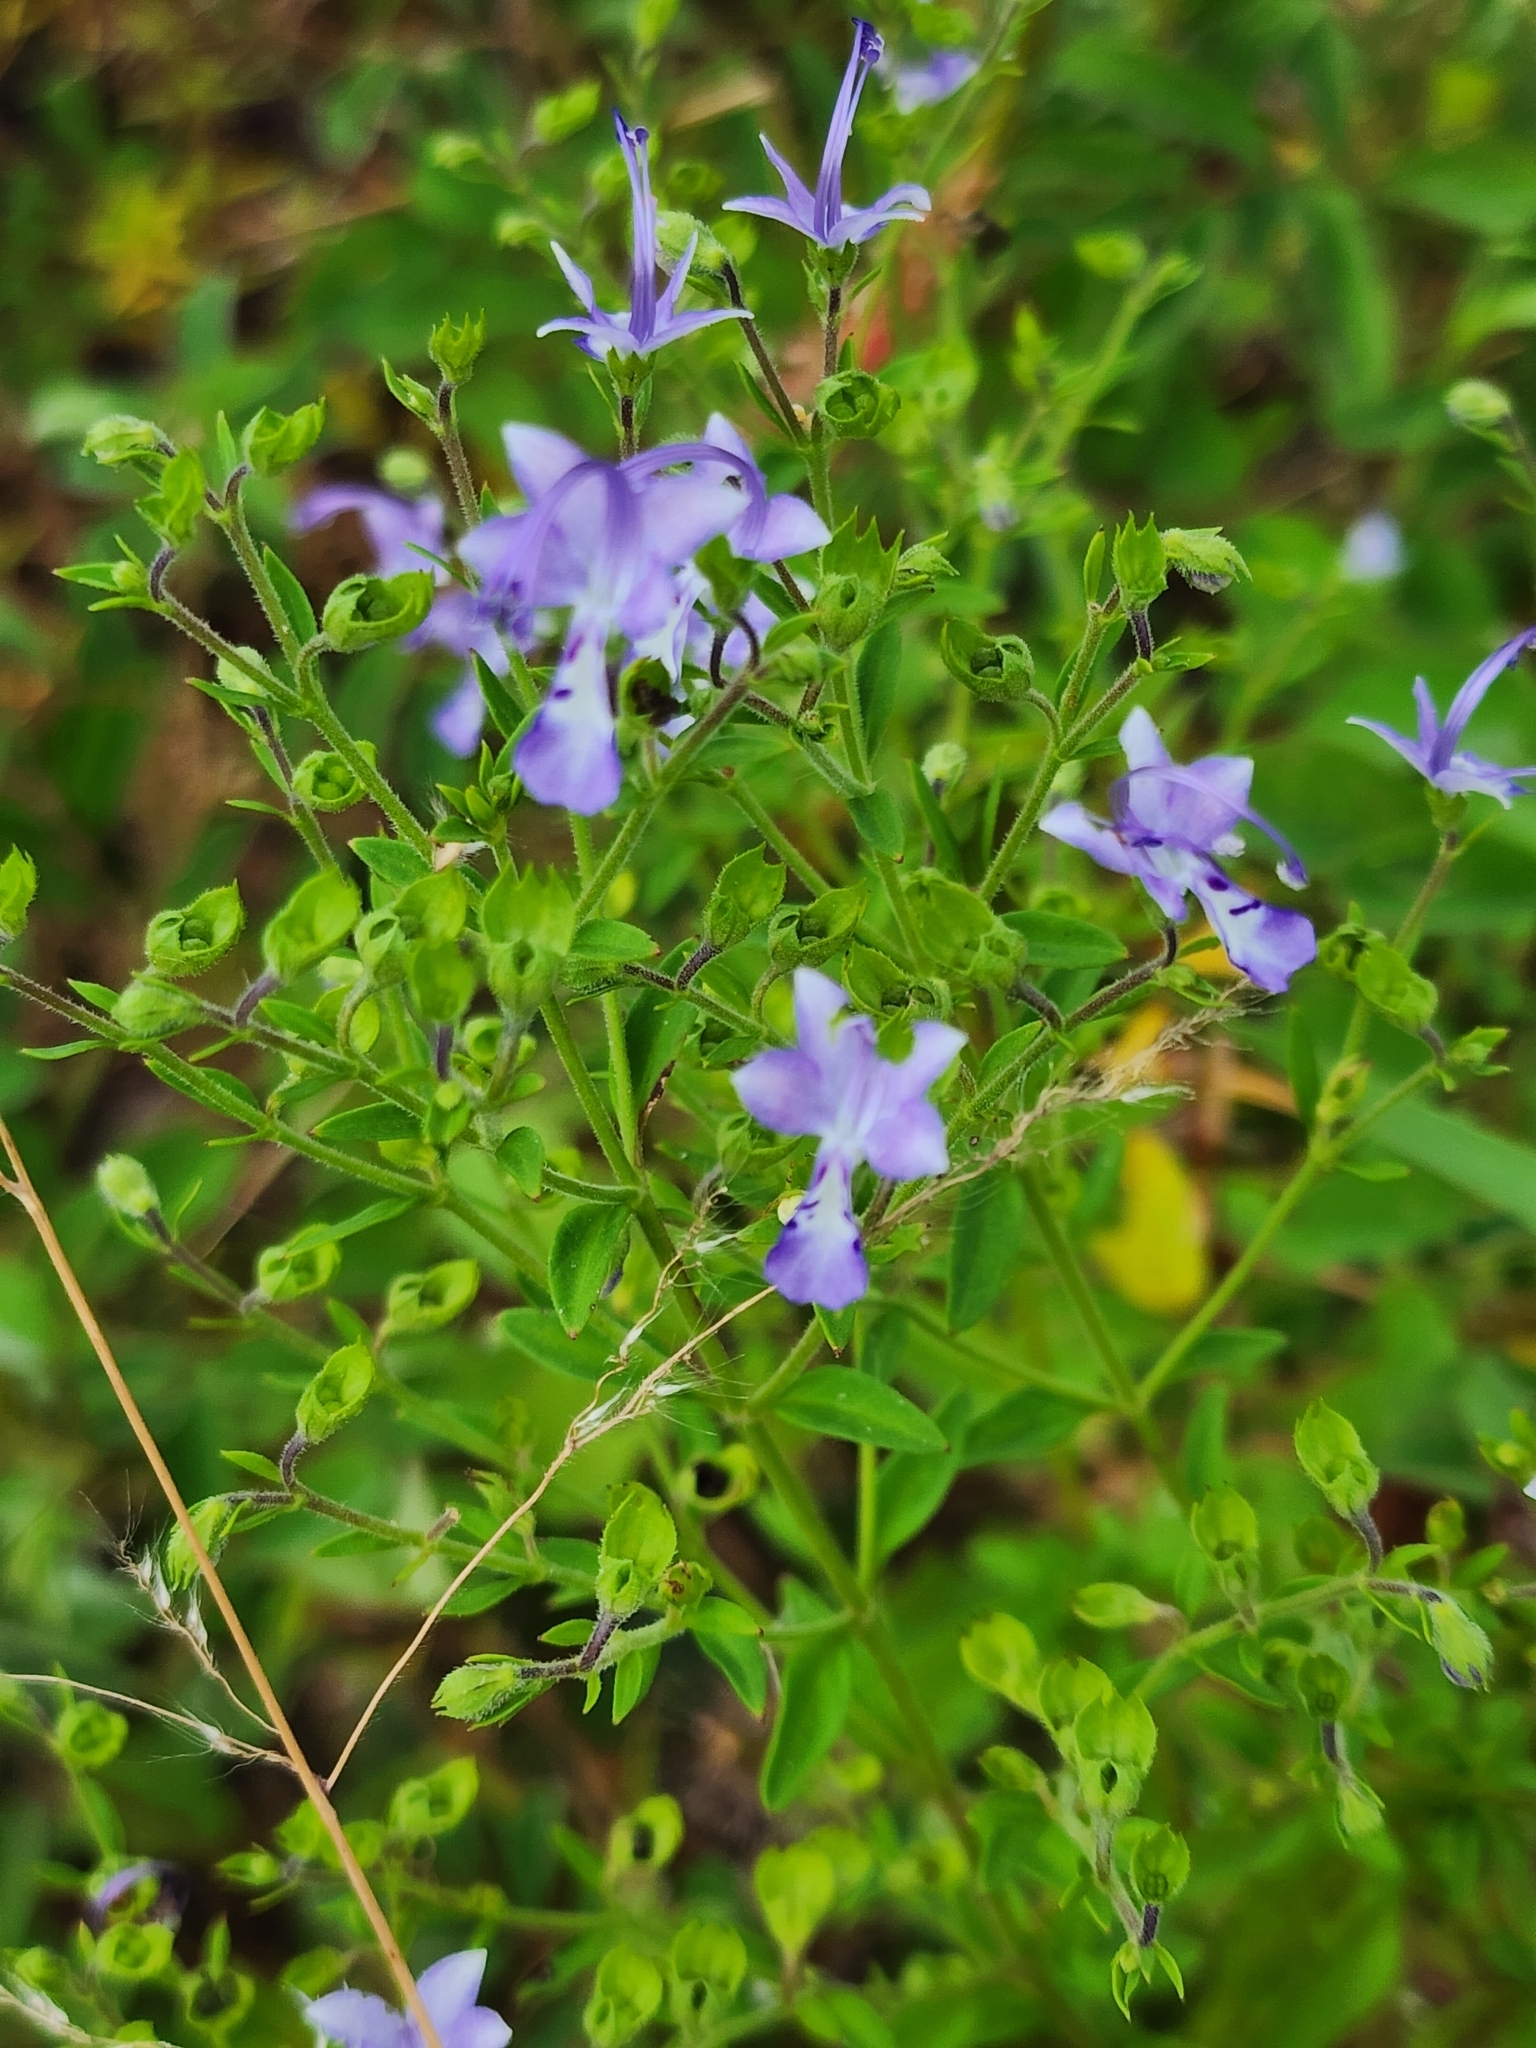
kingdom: Plantae
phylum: Tracheophyta
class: Magnoliopsida
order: Lamiales
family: Lamiaceae
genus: Trichostema
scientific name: Trichostema dichotomum
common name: Bastard pennyroyal
